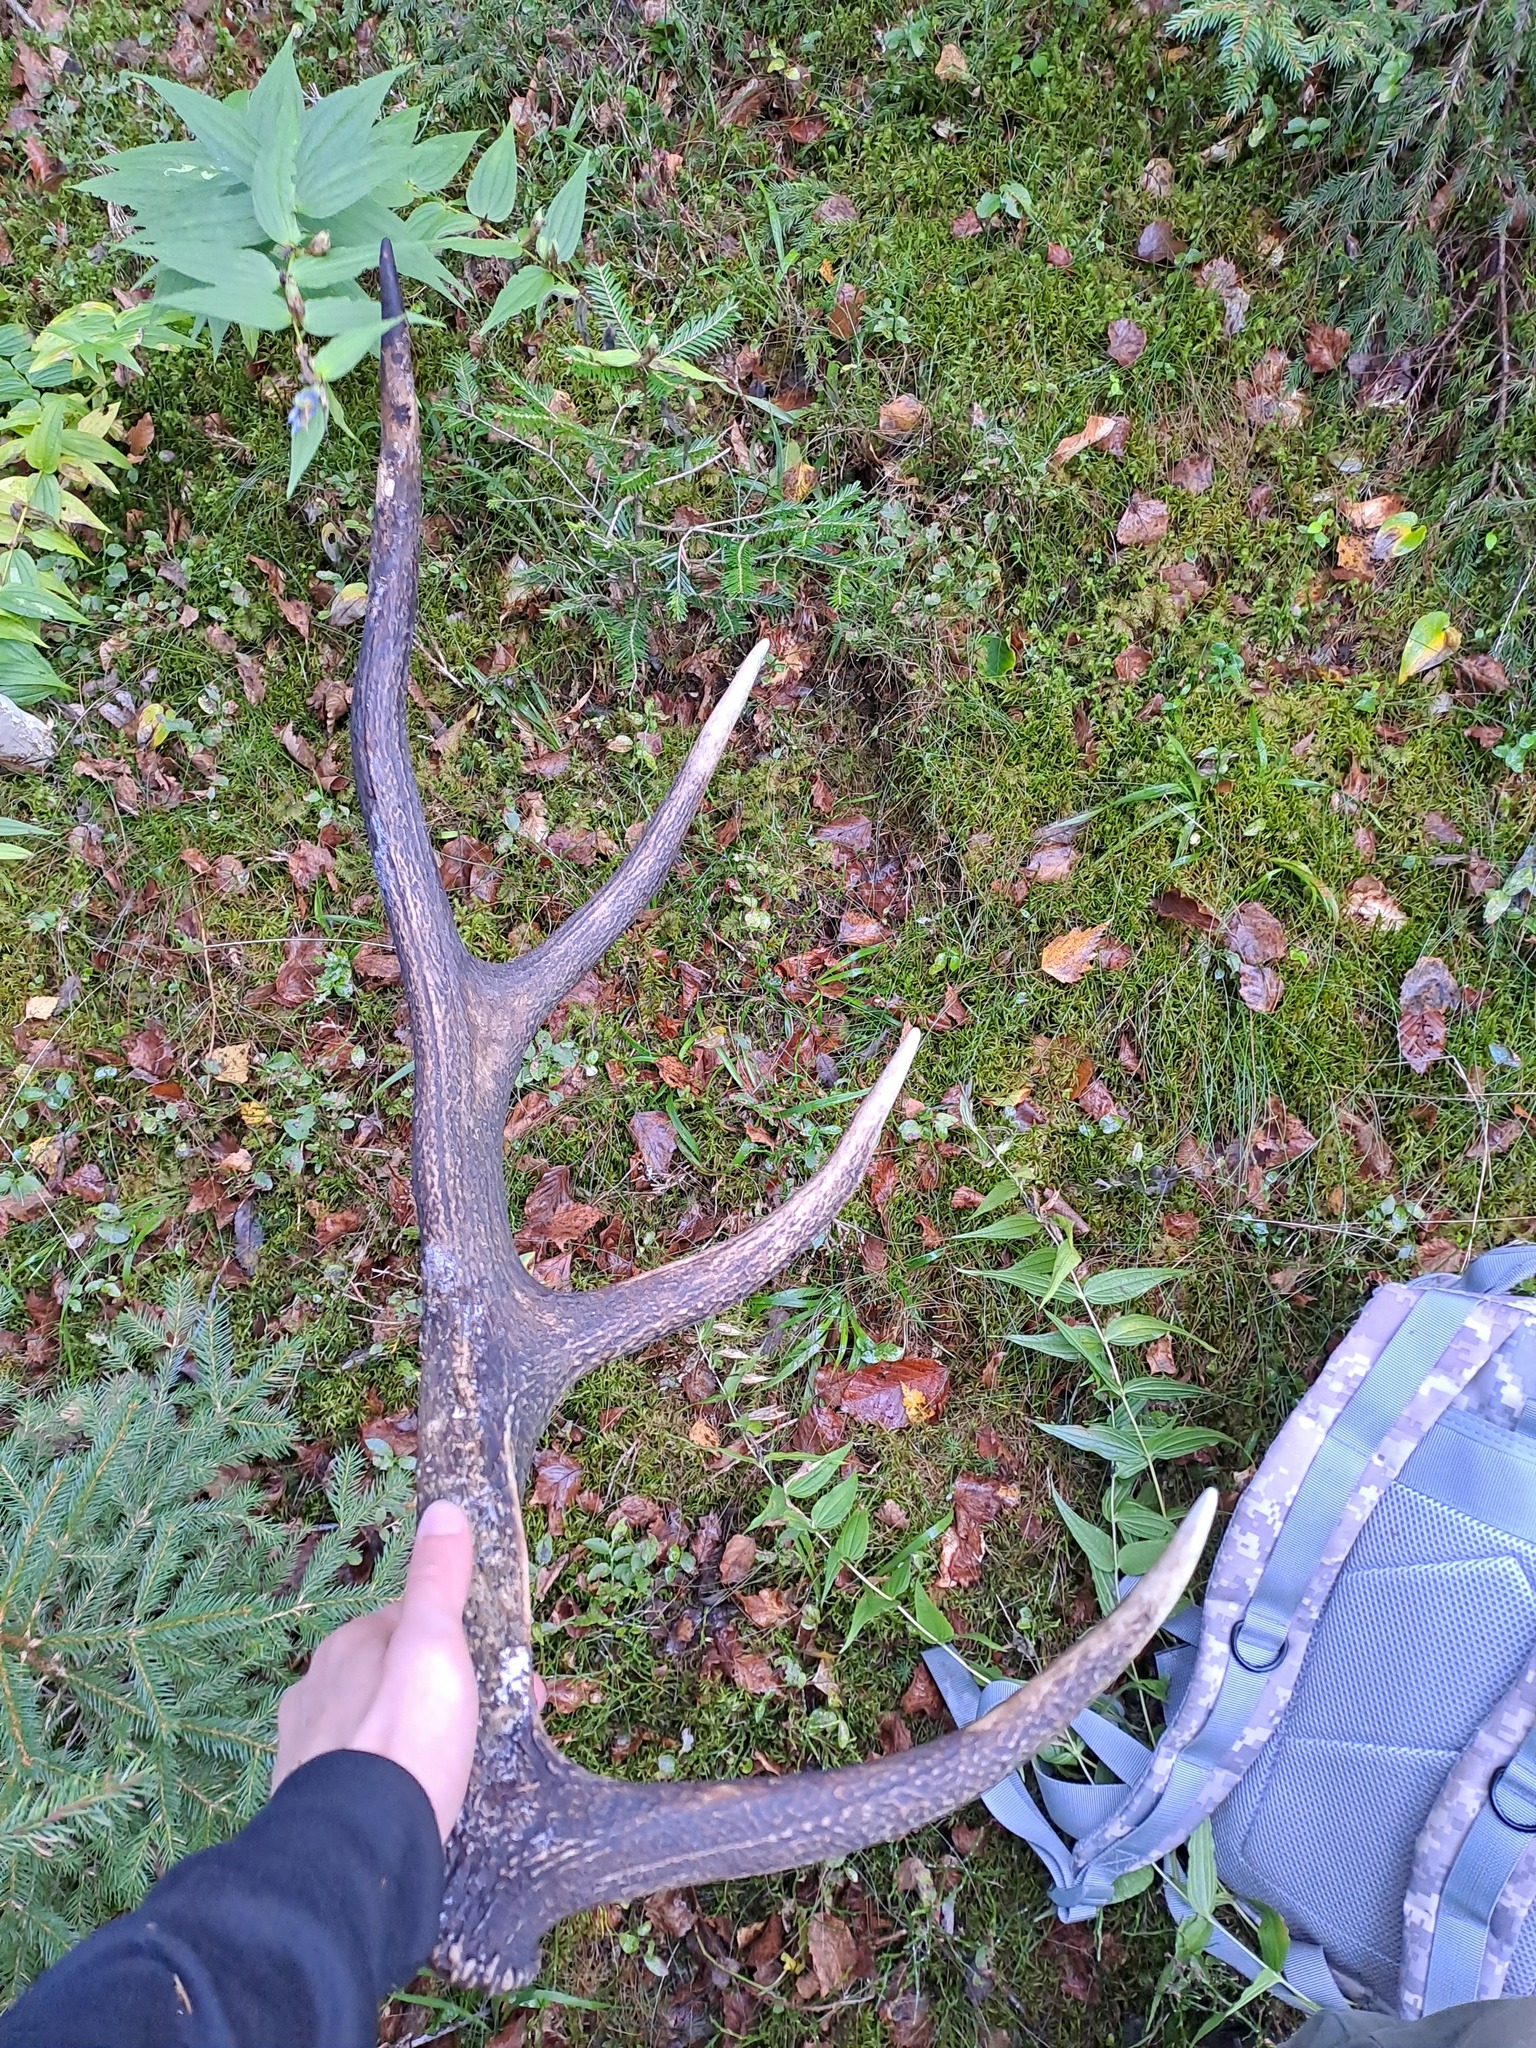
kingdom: Animalia
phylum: Chordata
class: Mammalia
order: Artiodactyla
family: Cervidae
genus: Cervus
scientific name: Cervus elaphus
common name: Red deer
